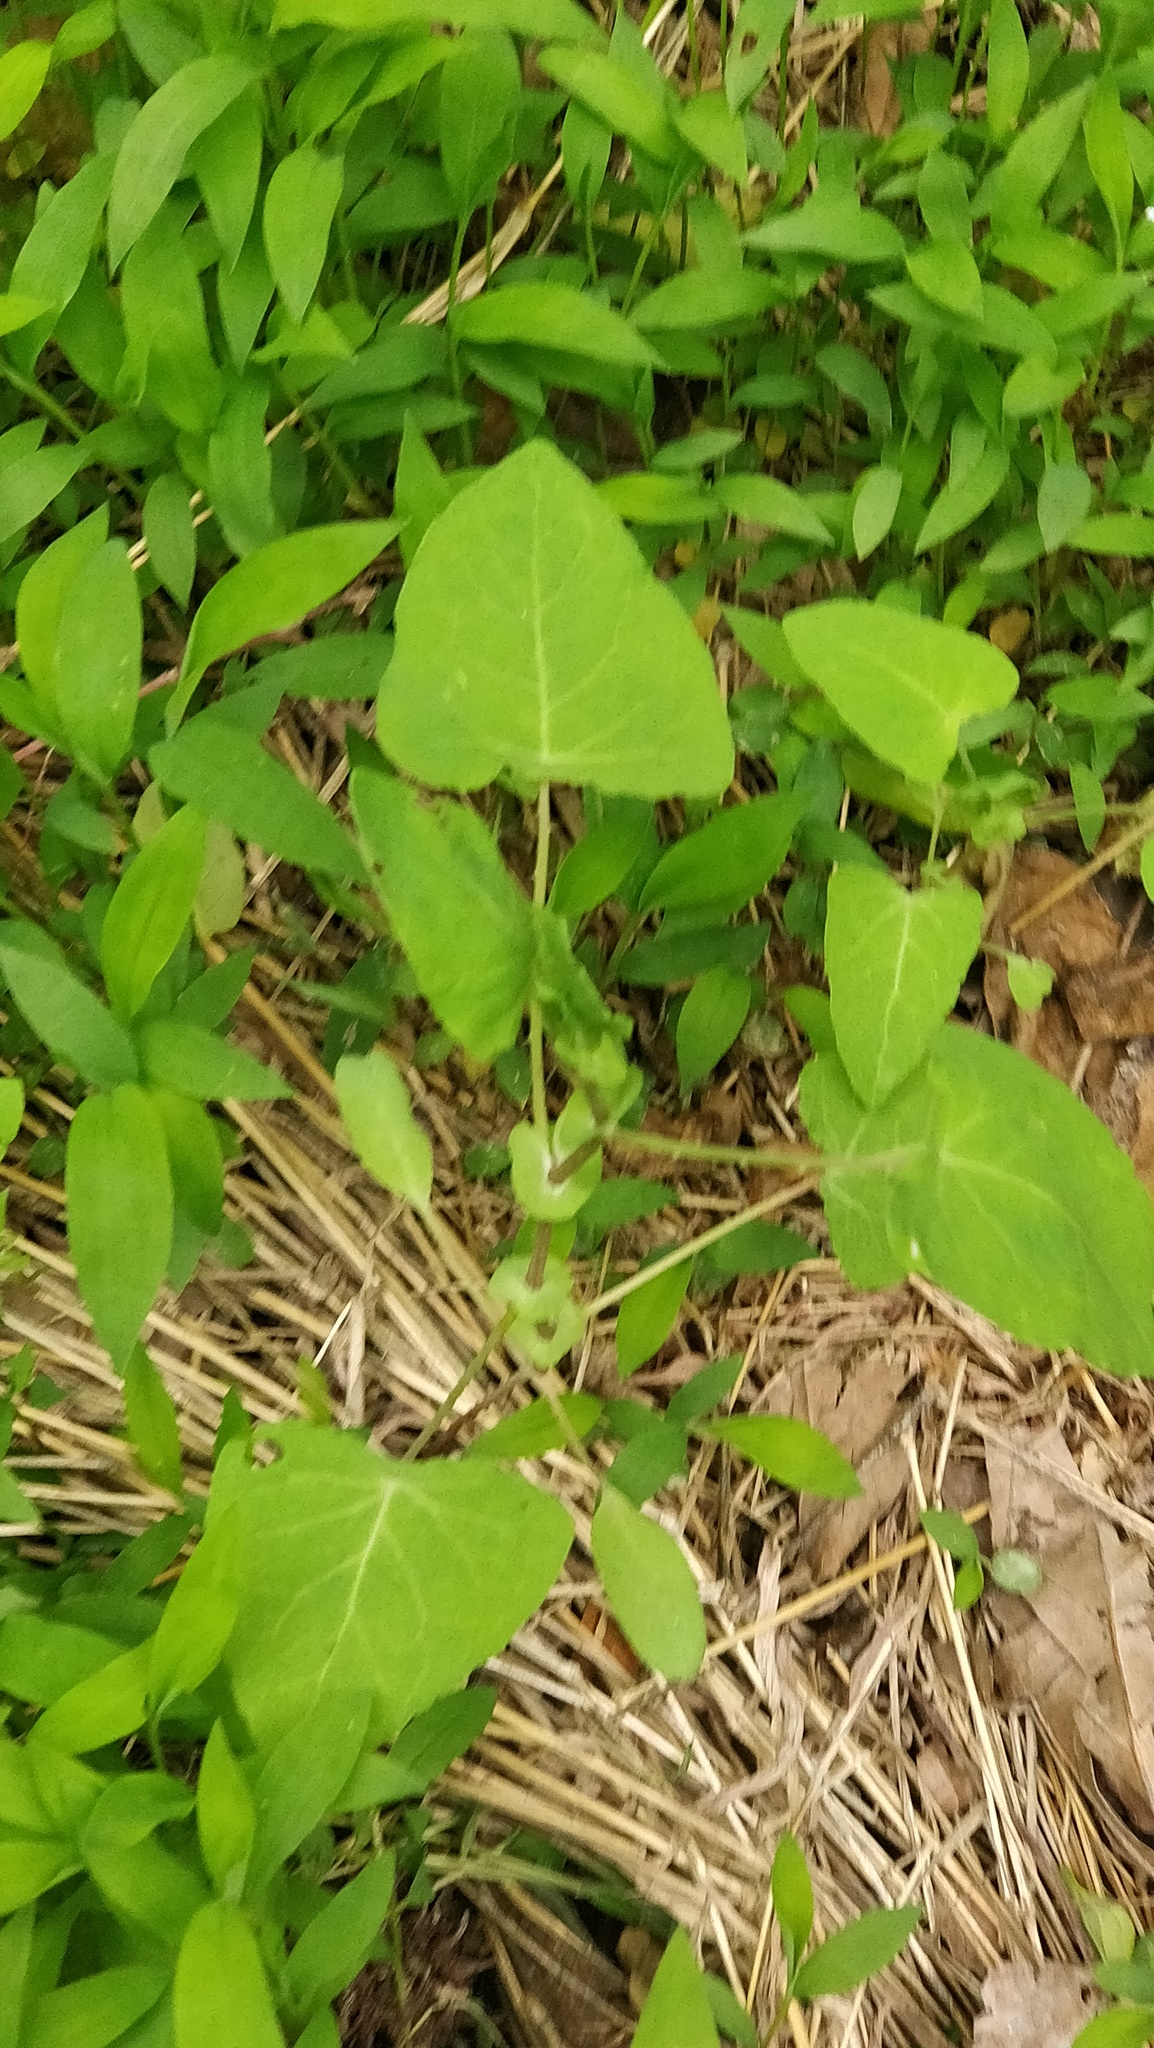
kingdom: Plantae
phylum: Tracheophyta
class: Magnoliopsida
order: Caryophyllales
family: Polygonaceae
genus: Persicaria
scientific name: Persicaria perfoliata
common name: Asiatic tearthumb
